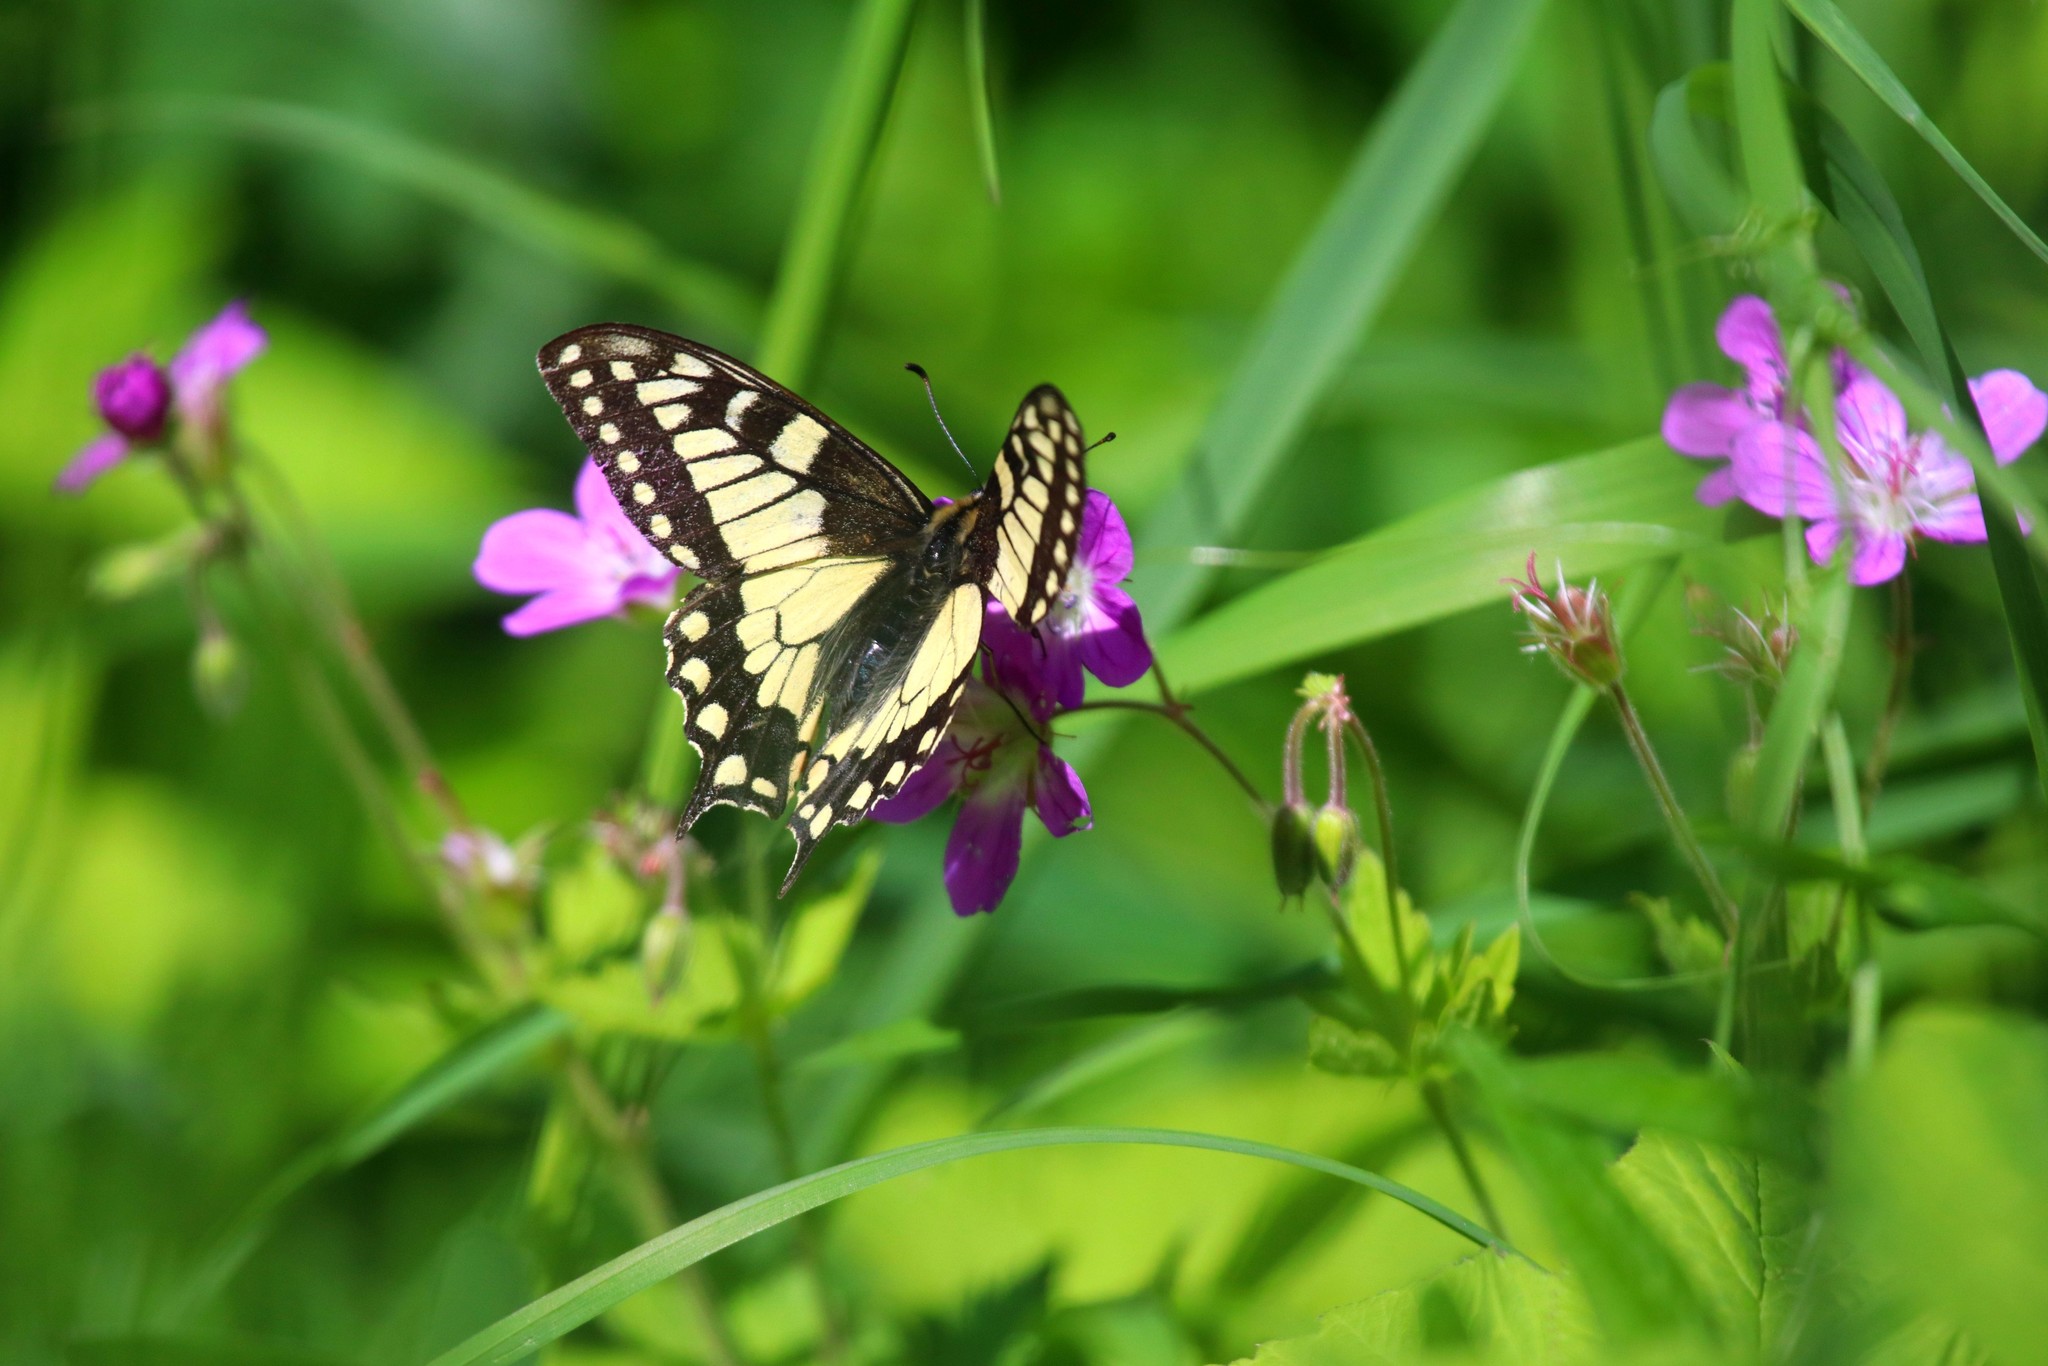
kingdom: Animalia
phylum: Arthropoda
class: Insecta
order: Lepidoptera
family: Papilionidae
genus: Papilio
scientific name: Papilio machaon
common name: Swallowtail
